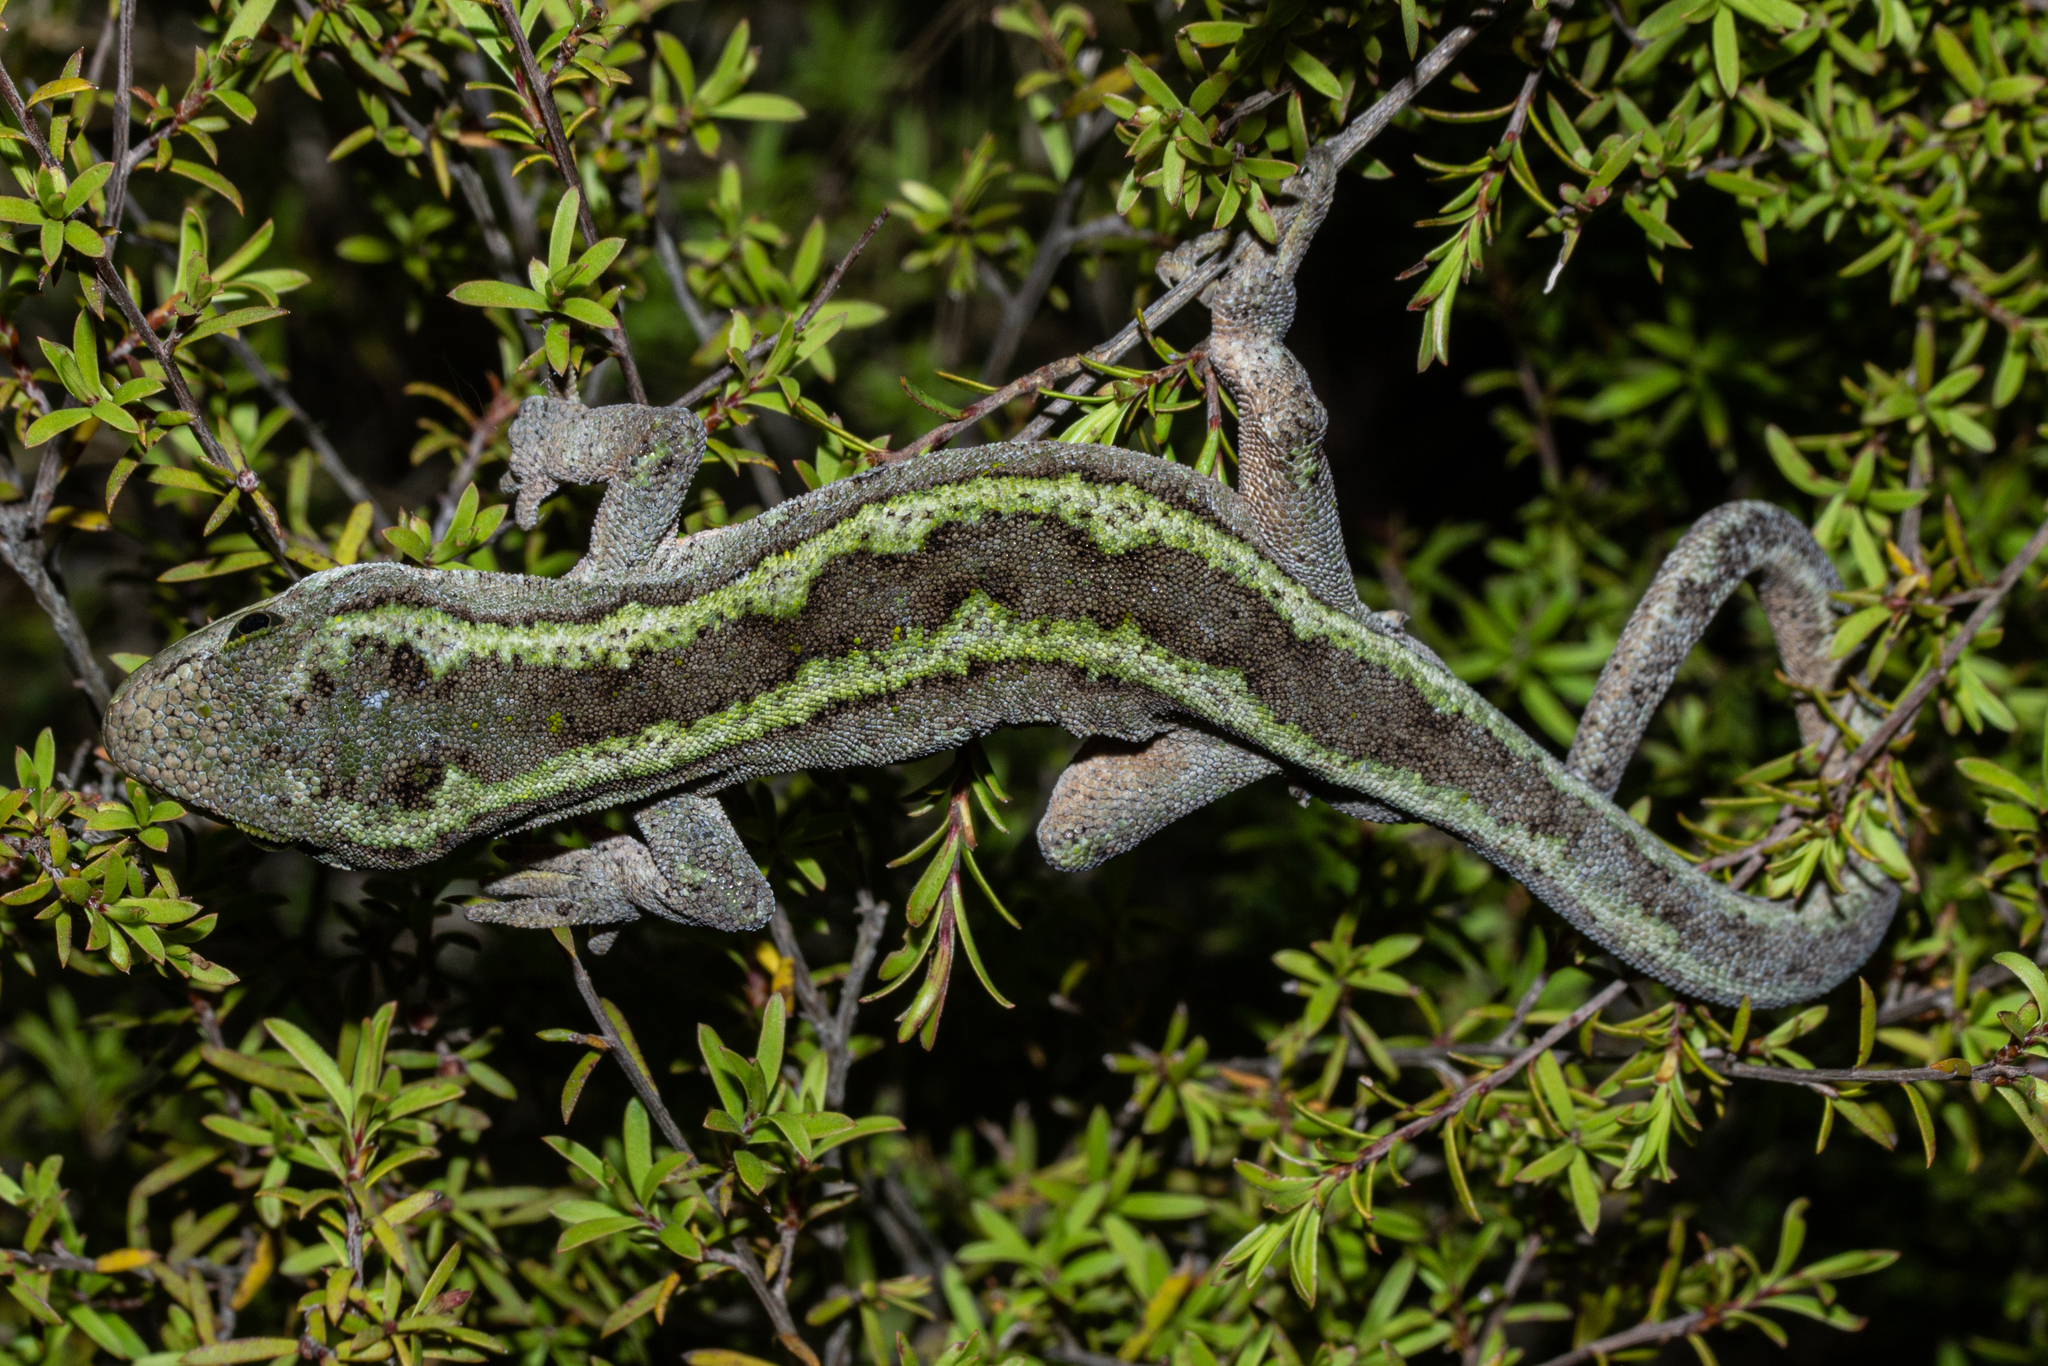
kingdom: Animalia
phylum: Chordata
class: Squamata
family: Diplodactylidae
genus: Naultinus
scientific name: Naultinus gemmeus
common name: Jewelled gecko
